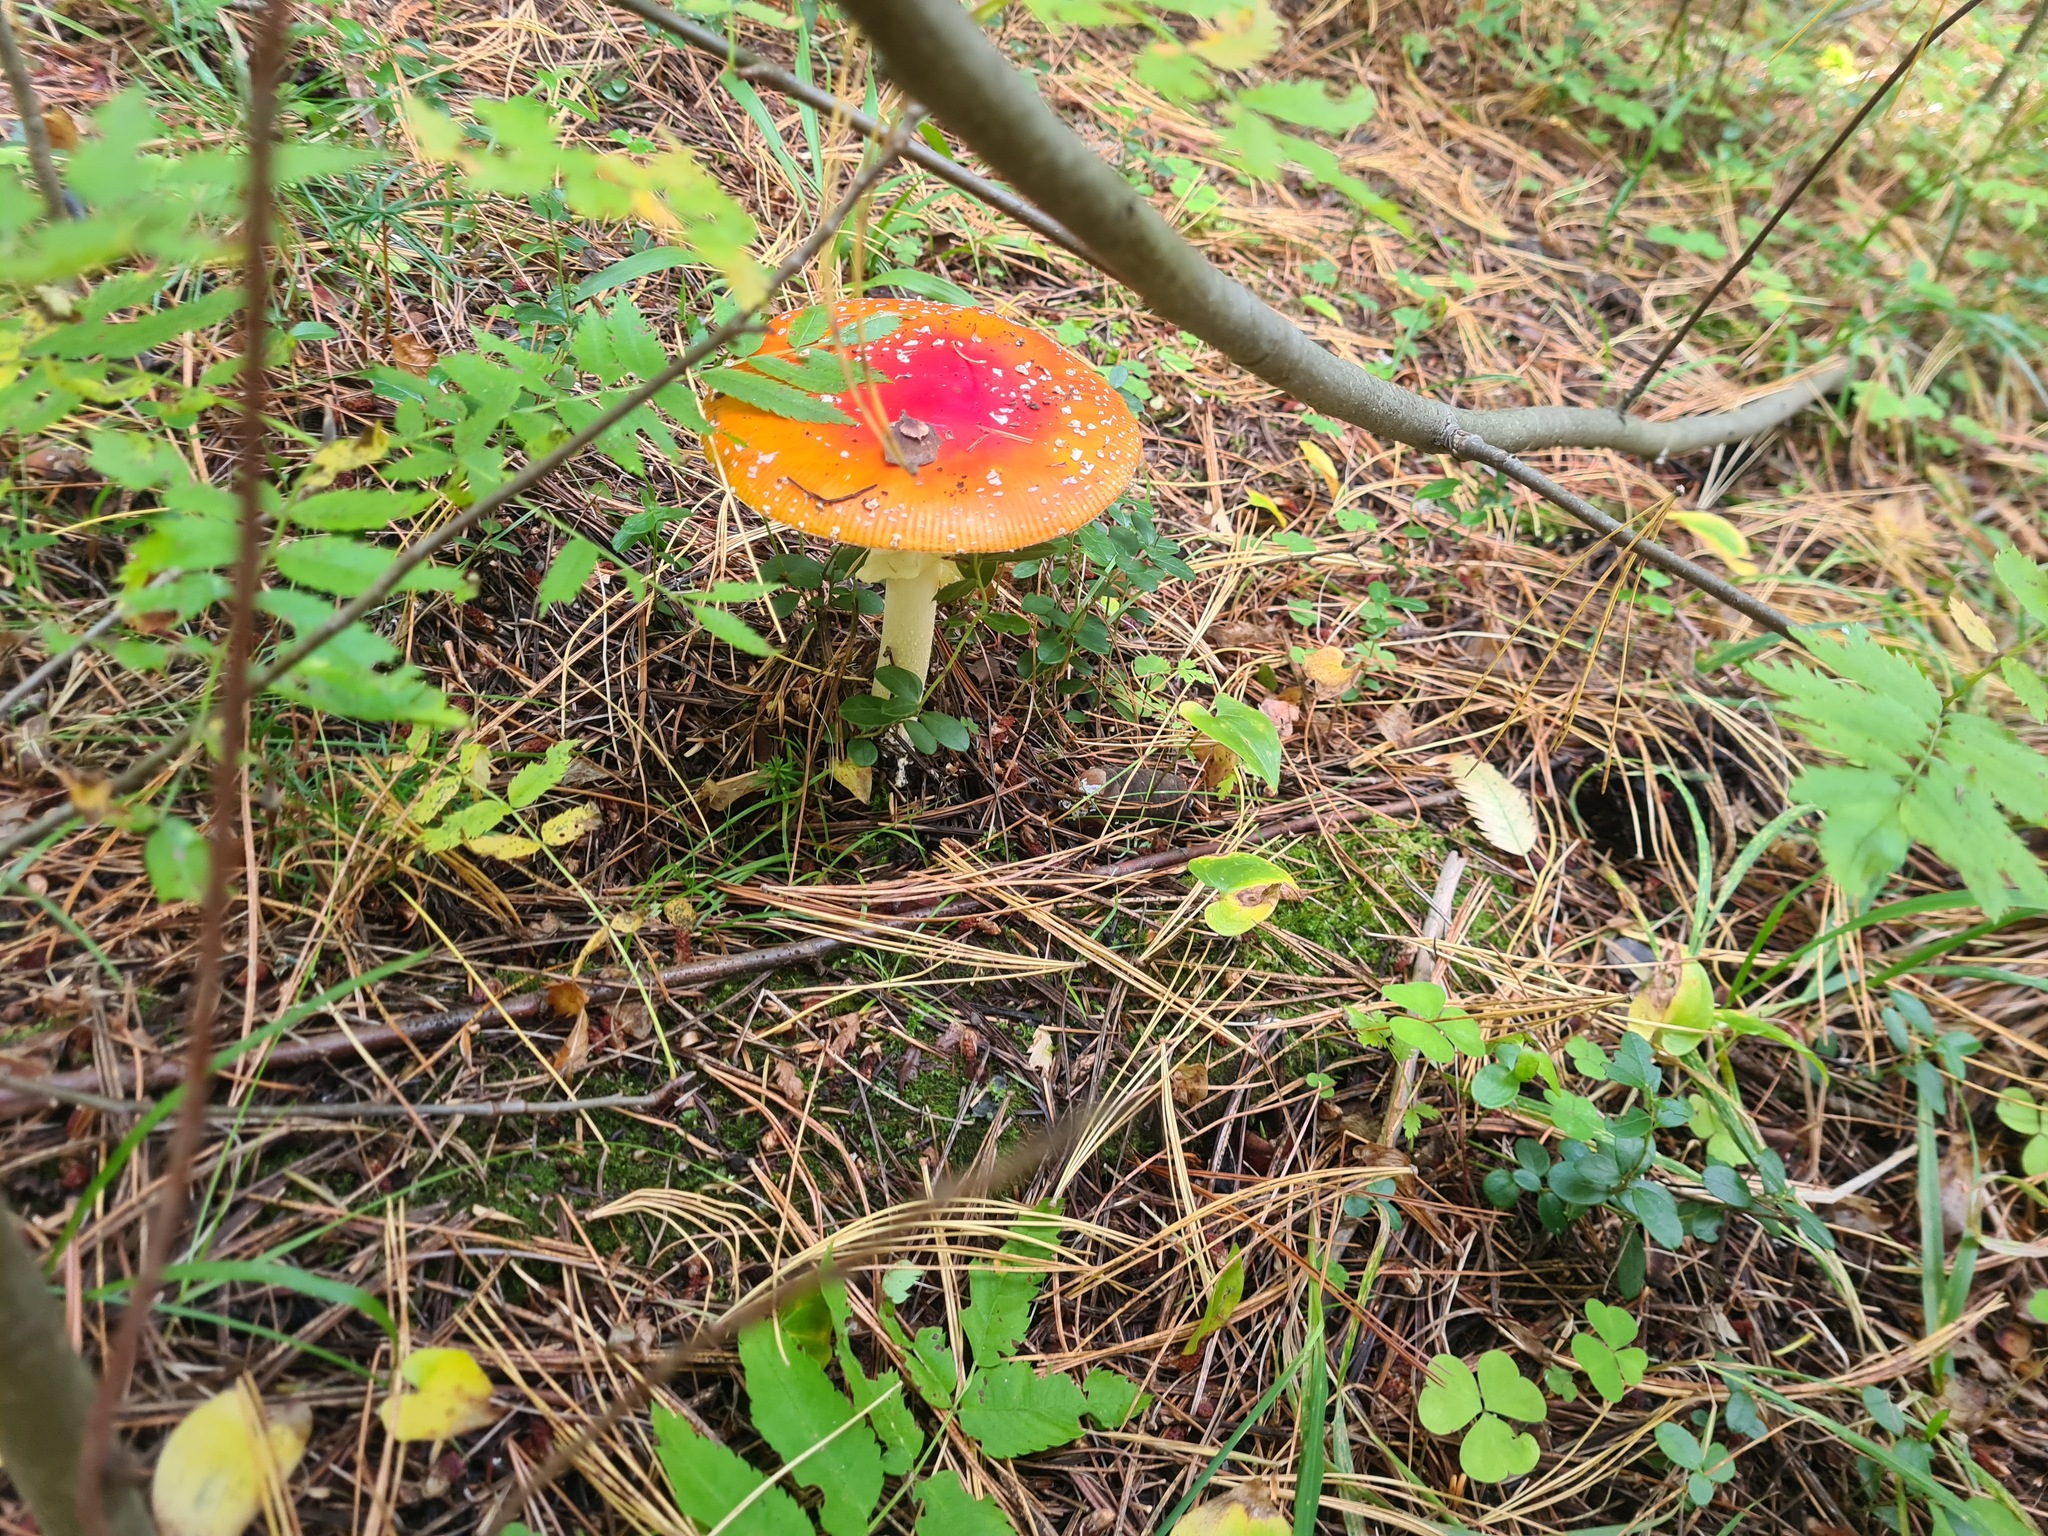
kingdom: Fungi
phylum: Basidiomycota
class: Agaricomycetes
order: Agaricales
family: Amanitaceae
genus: Amanita
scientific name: Amanita muscaria
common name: Fly agaric
